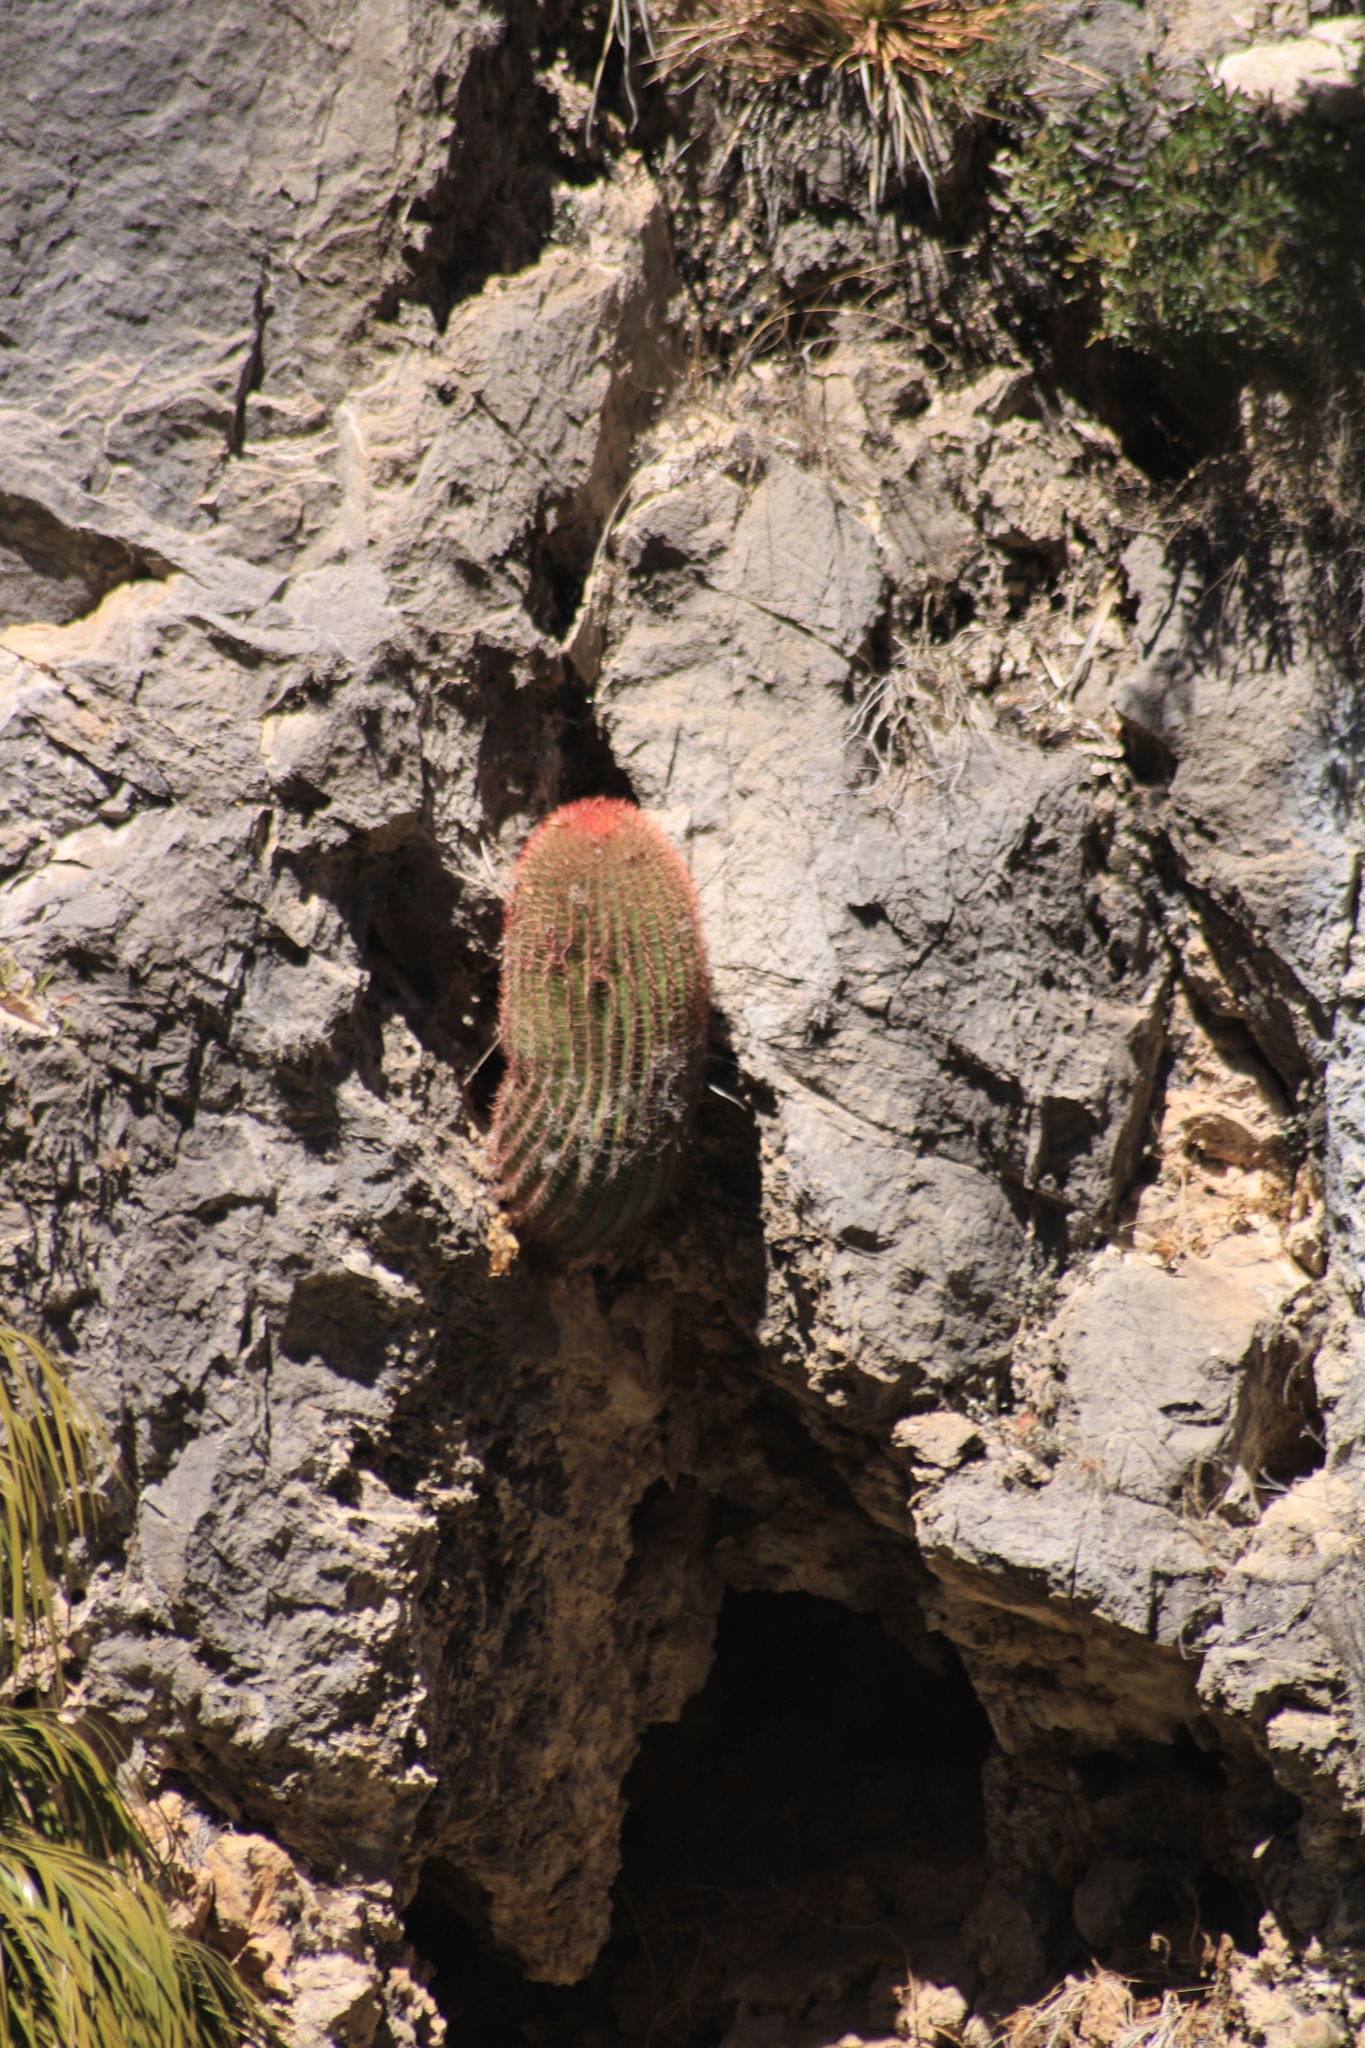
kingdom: Plantae
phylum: Tracheophyta
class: Magnoliopsida
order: Caryophyllales
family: Cactaceae
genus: Ferocactus
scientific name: Ferocactus pilosus
